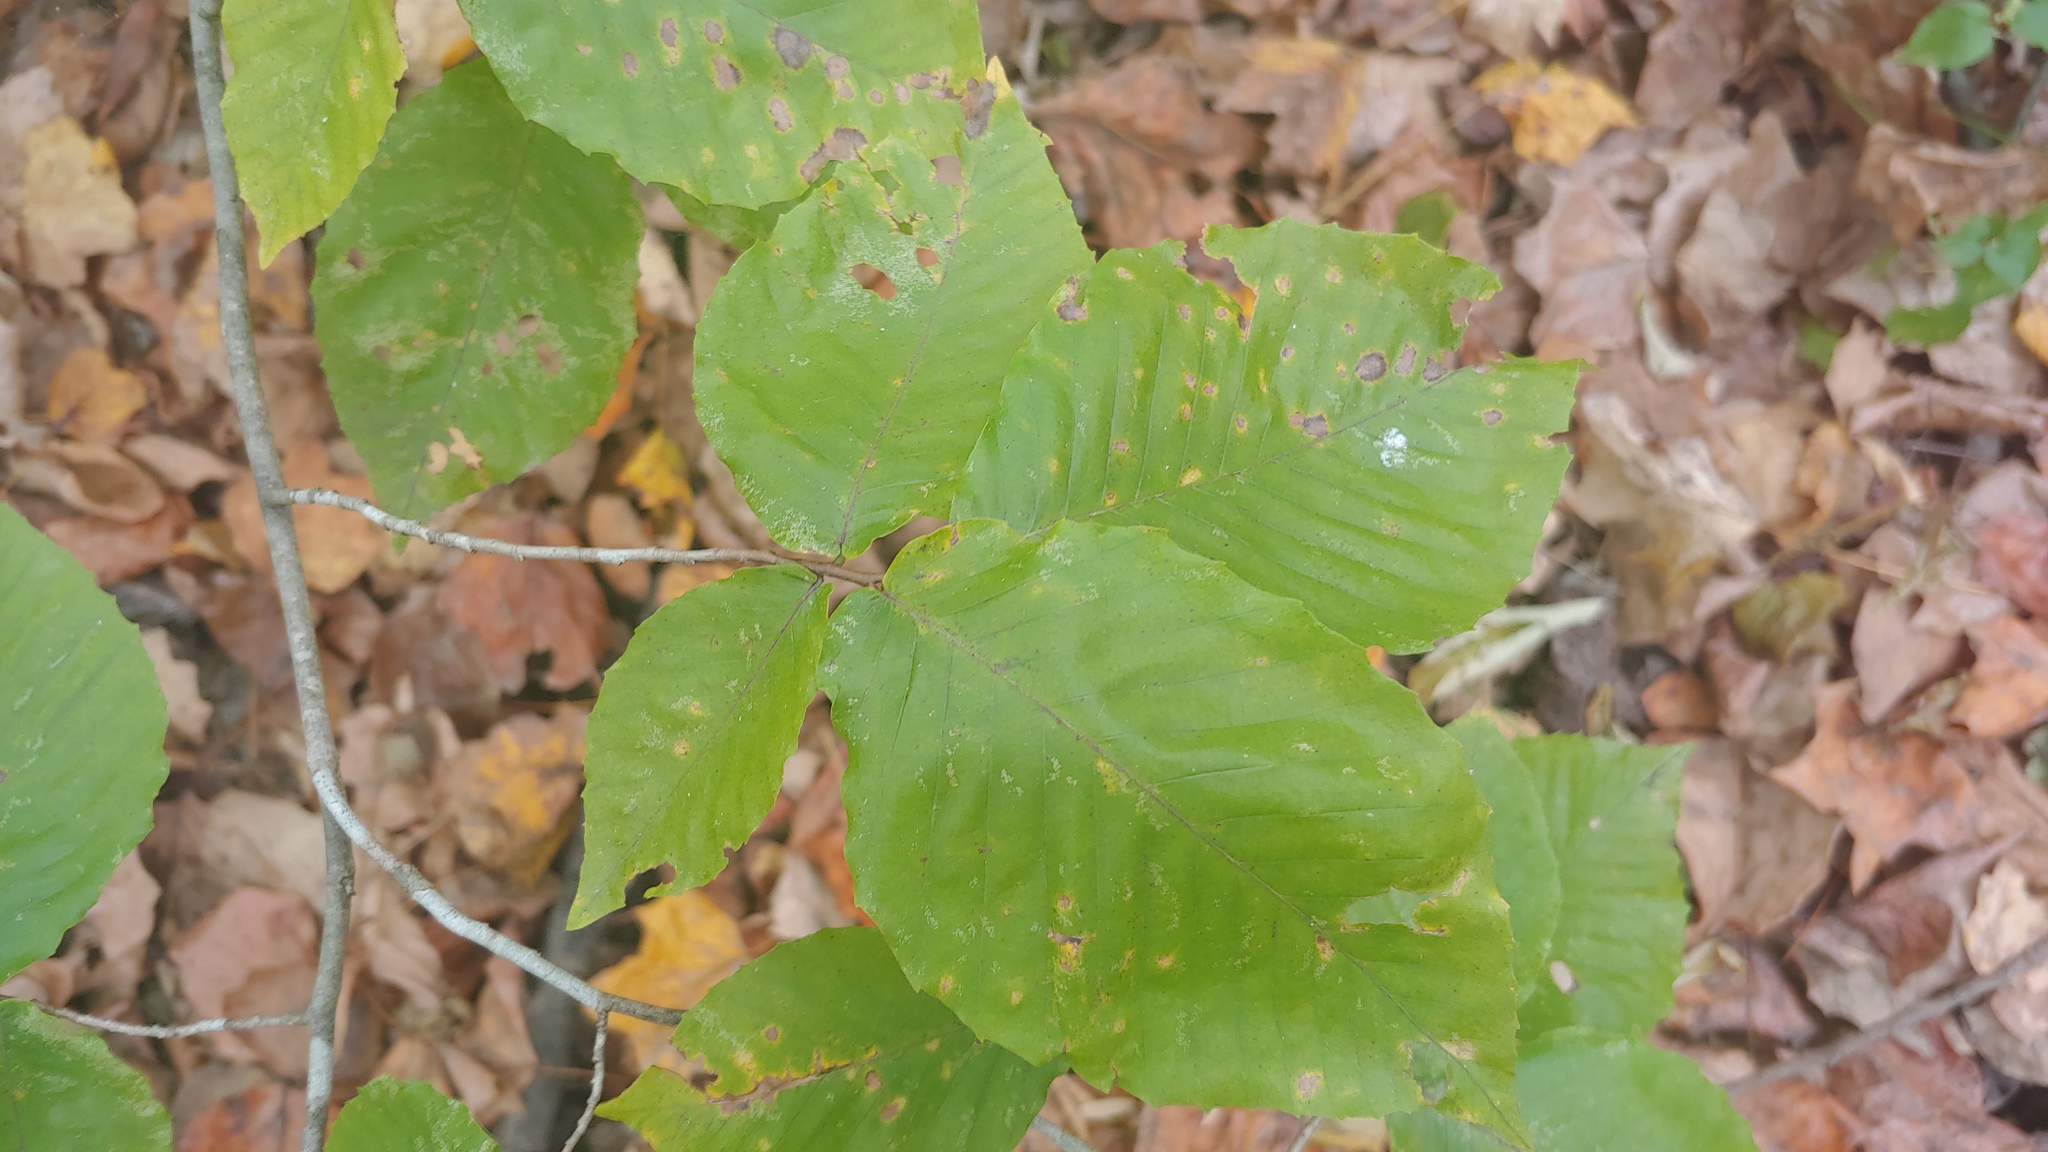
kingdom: Plantae
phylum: Tracheophyta
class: Magnoliopsida
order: Fagales
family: Fagaceae
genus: Fagus
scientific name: Fagus grandifolia
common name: American beech
